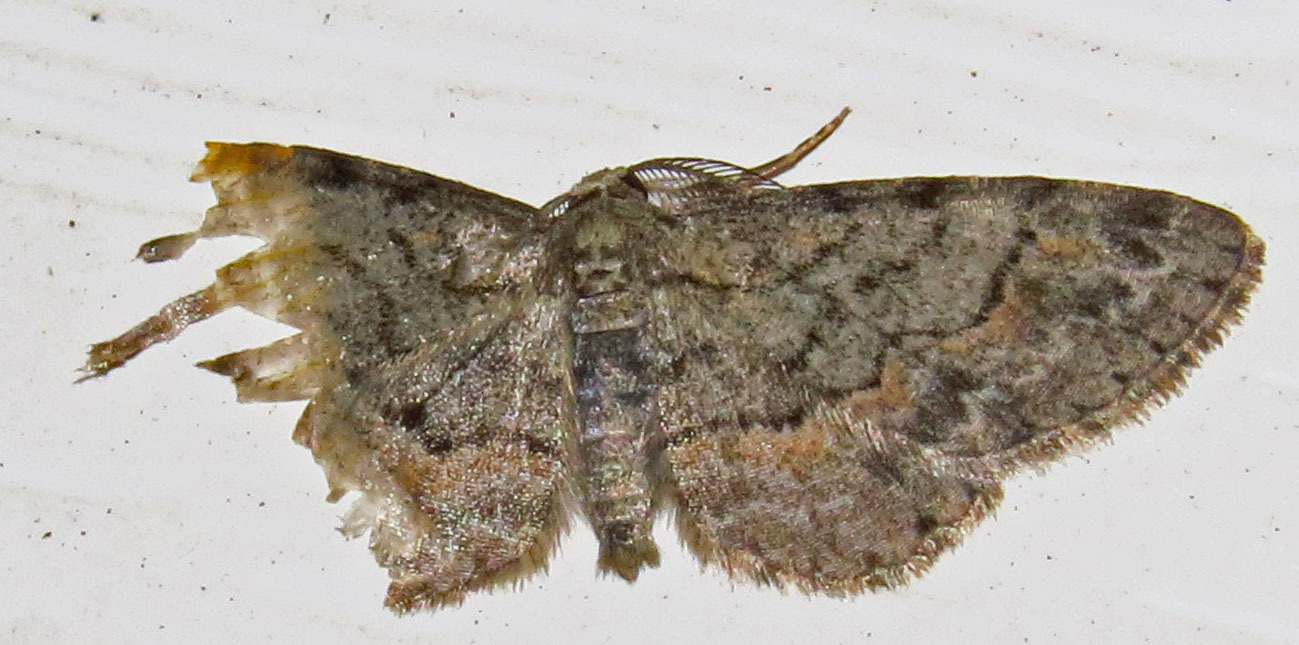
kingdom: Animalia
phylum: Arthropoda
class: Insecta
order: Lepidoptera
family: Geometridae
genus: Glenoides
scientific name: Glenoides texanaria
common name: Texas gray
